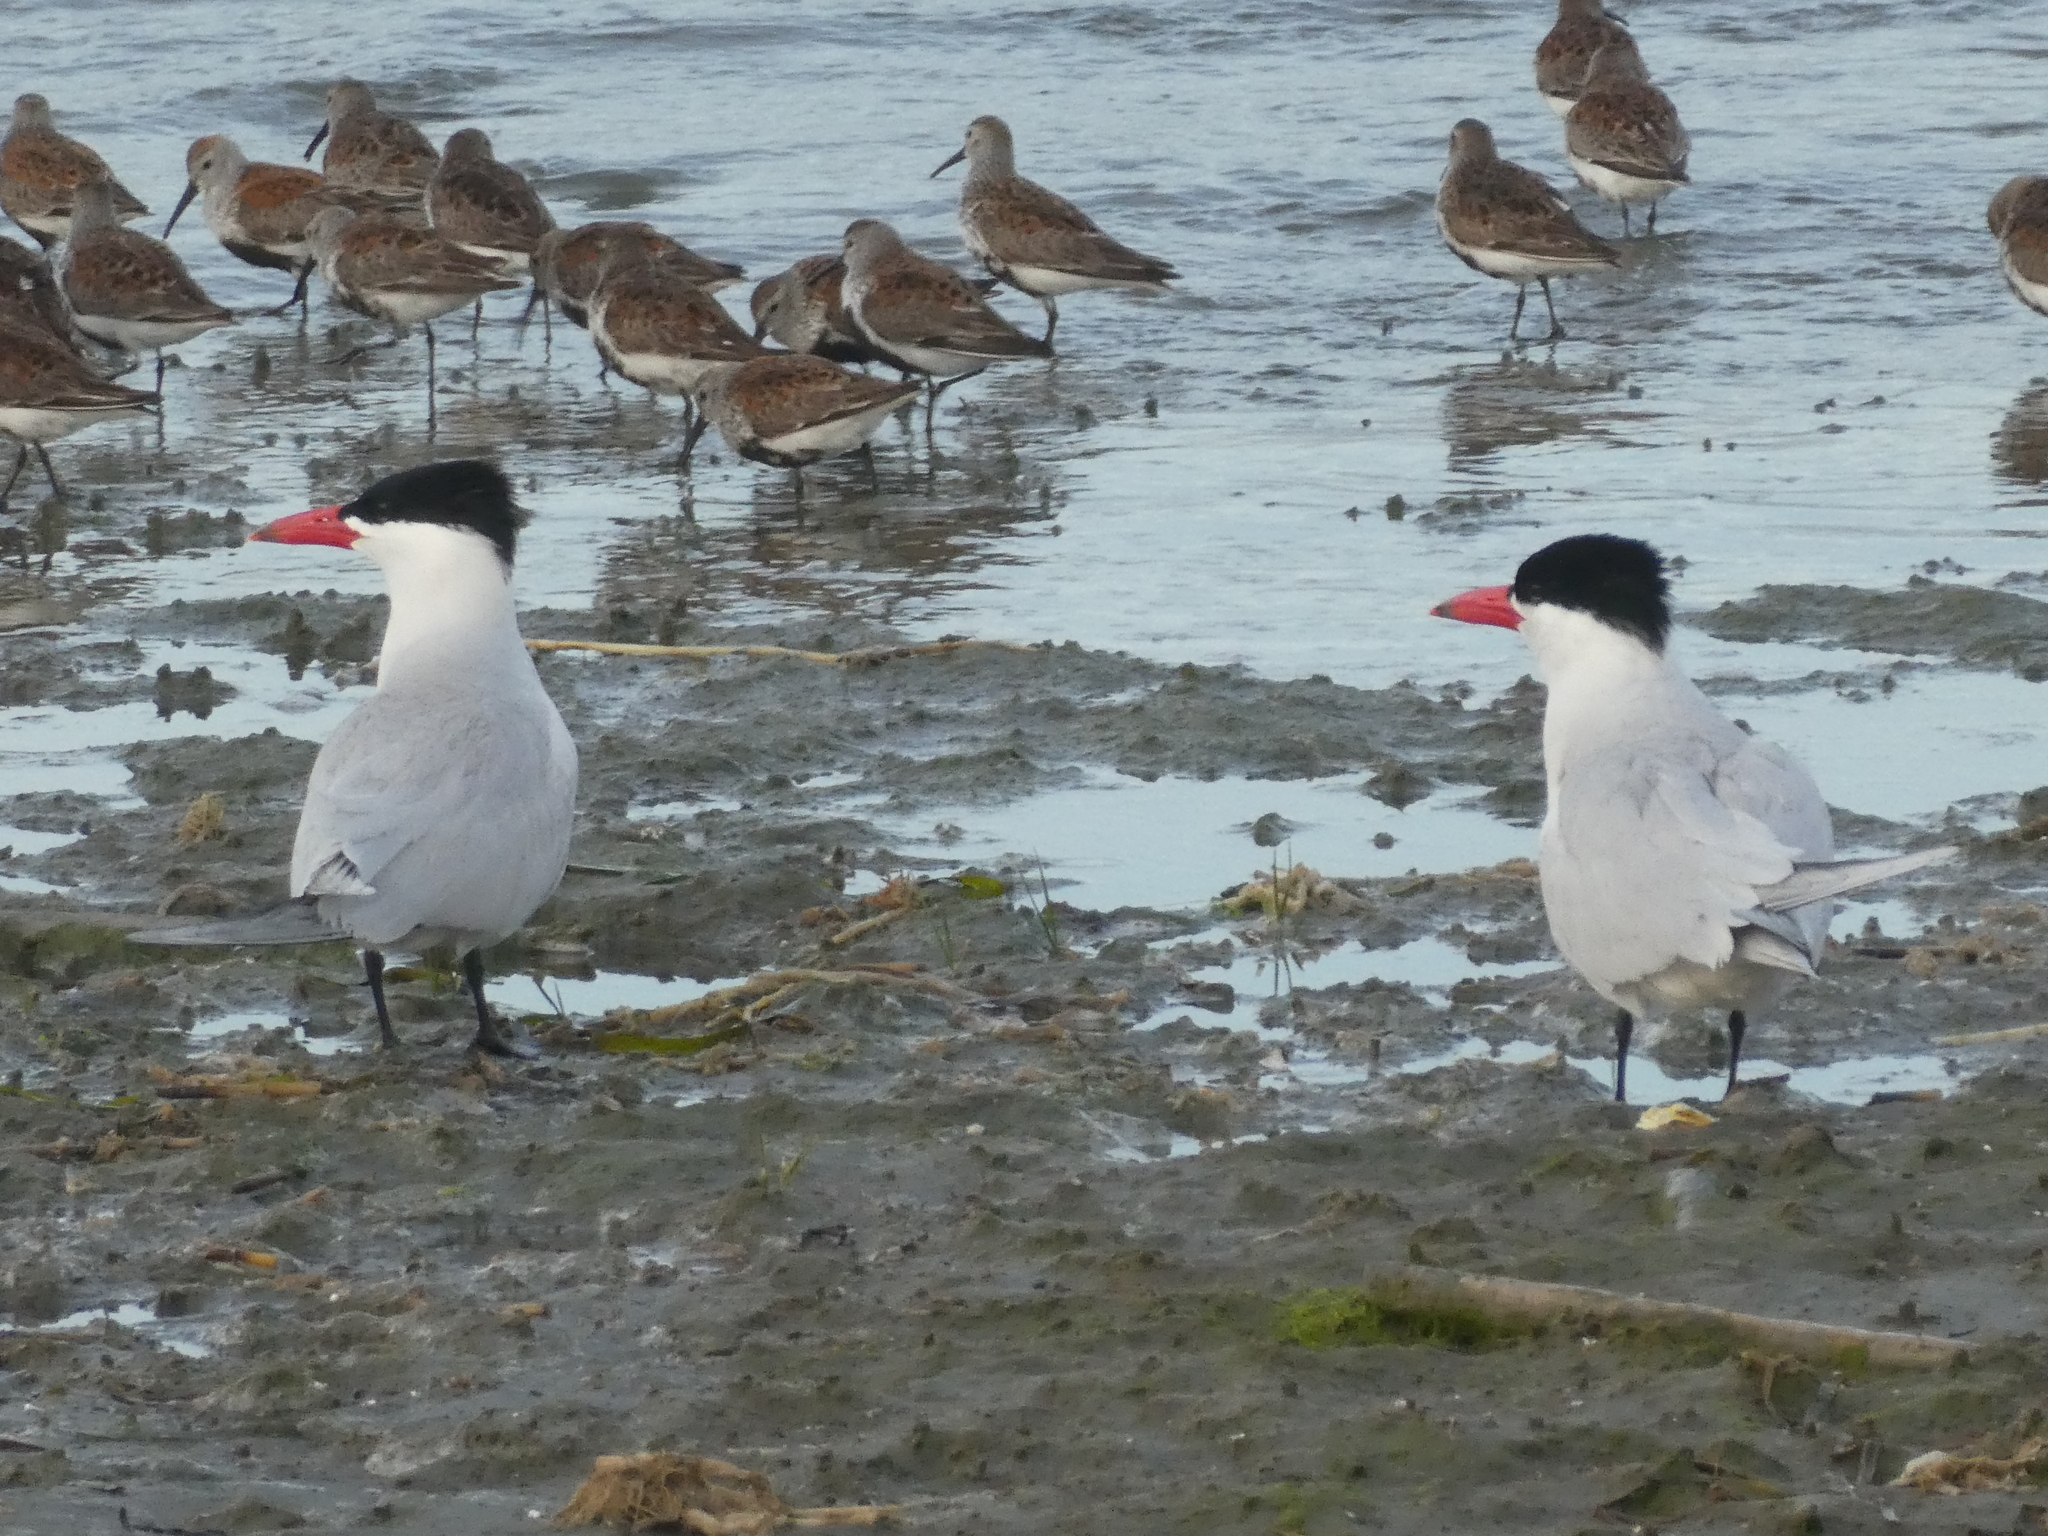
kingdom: Animalia
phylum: Chordata
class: Aves
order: Charadriiformes
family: Laridae
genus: Hydroprogne
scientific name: Hydroprogne caspia
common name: Caspian tern
